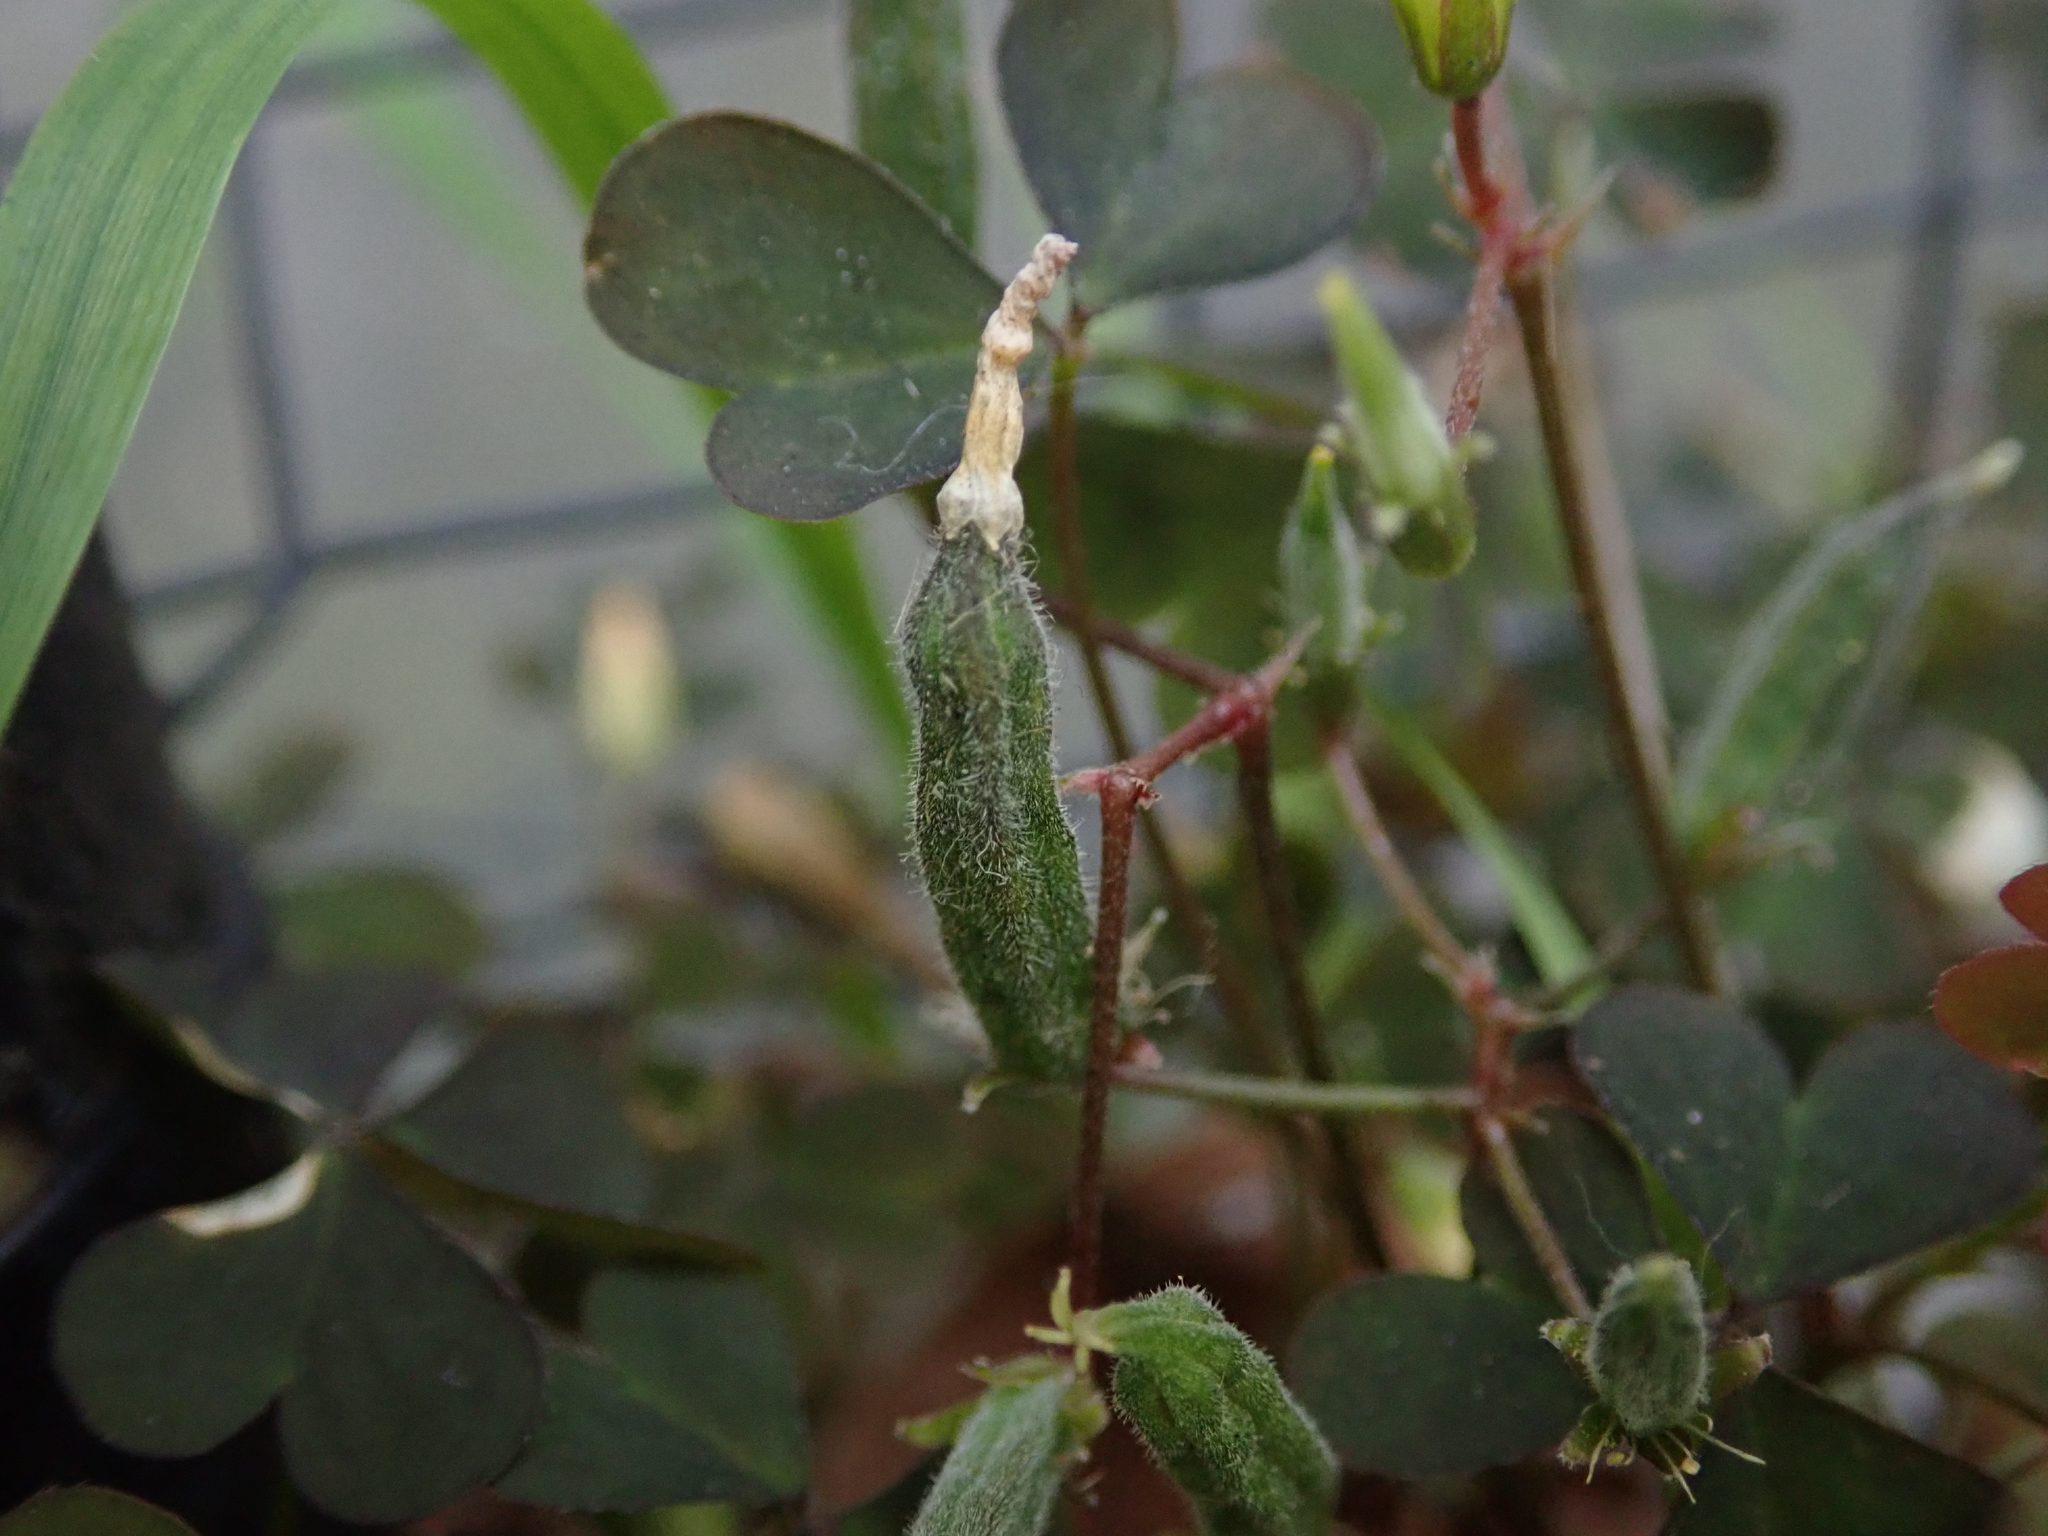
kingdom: Plantae
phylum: Tracheophyta
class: Magnoliopsida
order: Oxalidales
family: Oxalidaceae
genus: Oxalis
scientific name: Oxalis corniculata
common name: Procumbent yellow-sorrel
